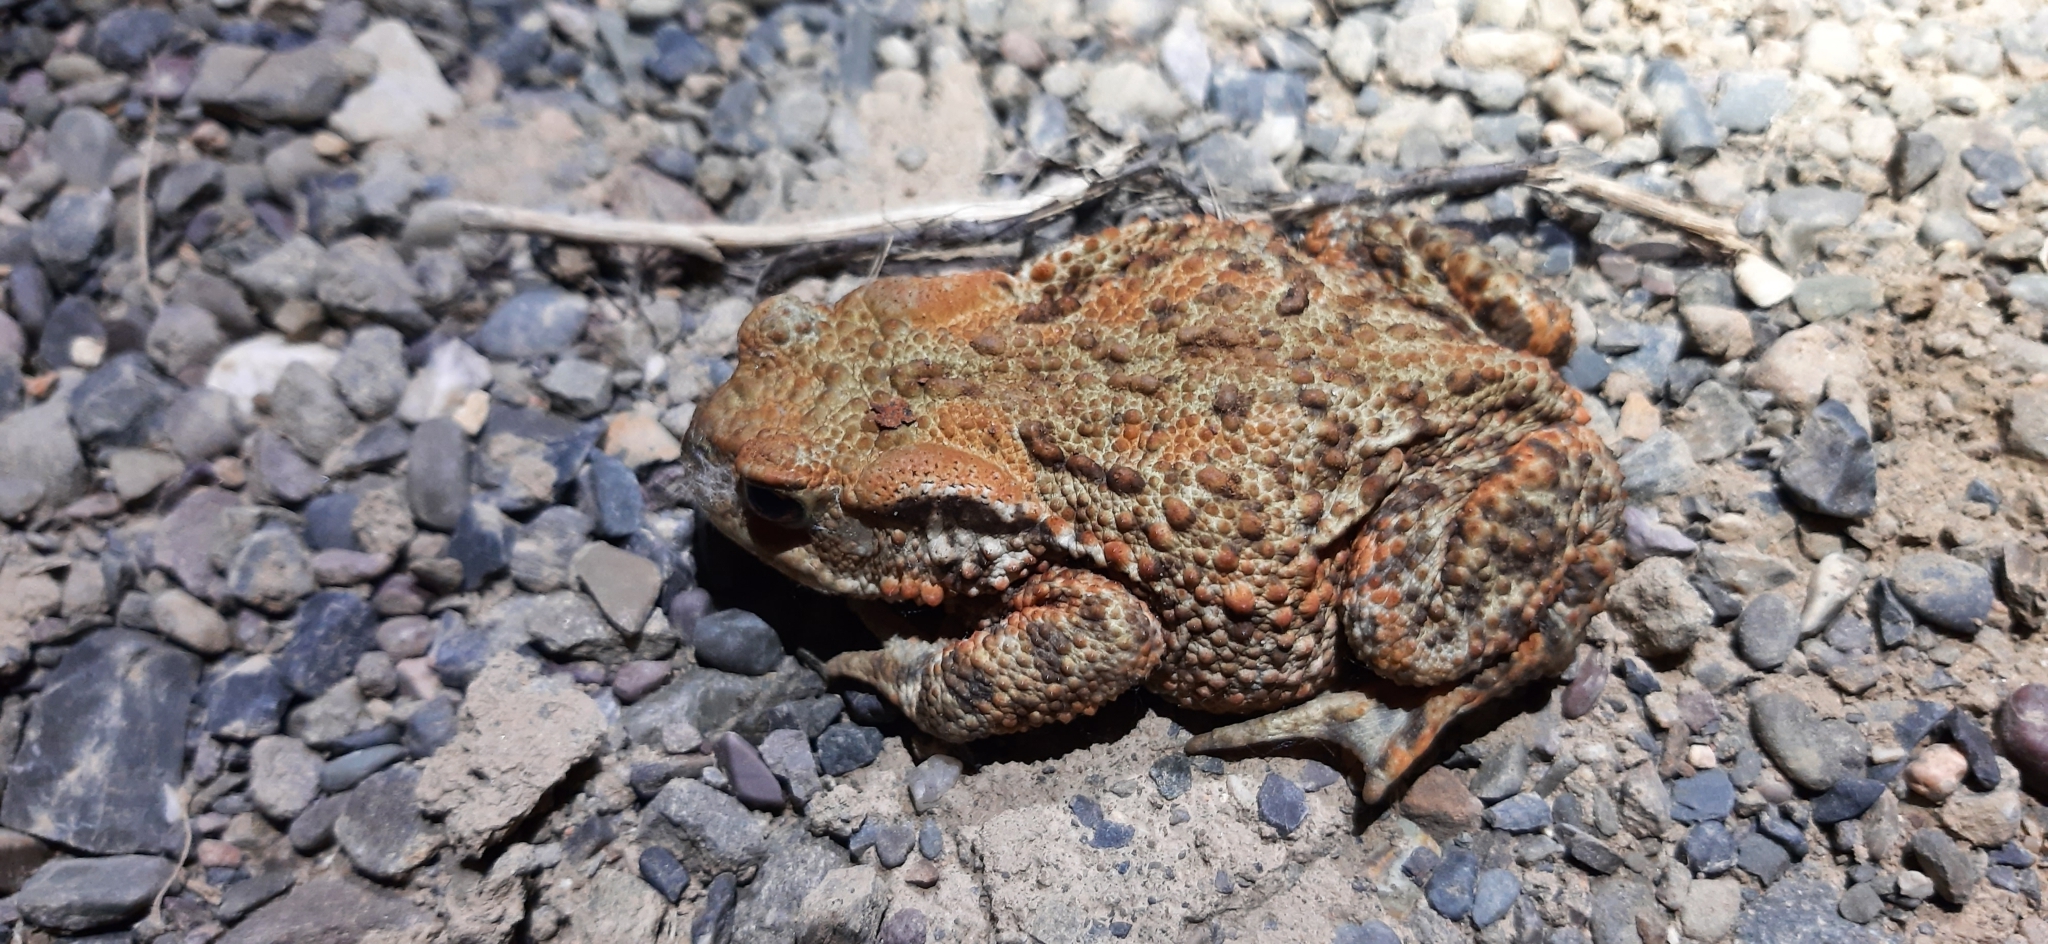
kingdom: Animalia
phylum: Chordata
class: Amphibia
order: Anura
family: Bufonidae
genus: Bufo
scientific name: Bufo bufo
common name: Common toad
